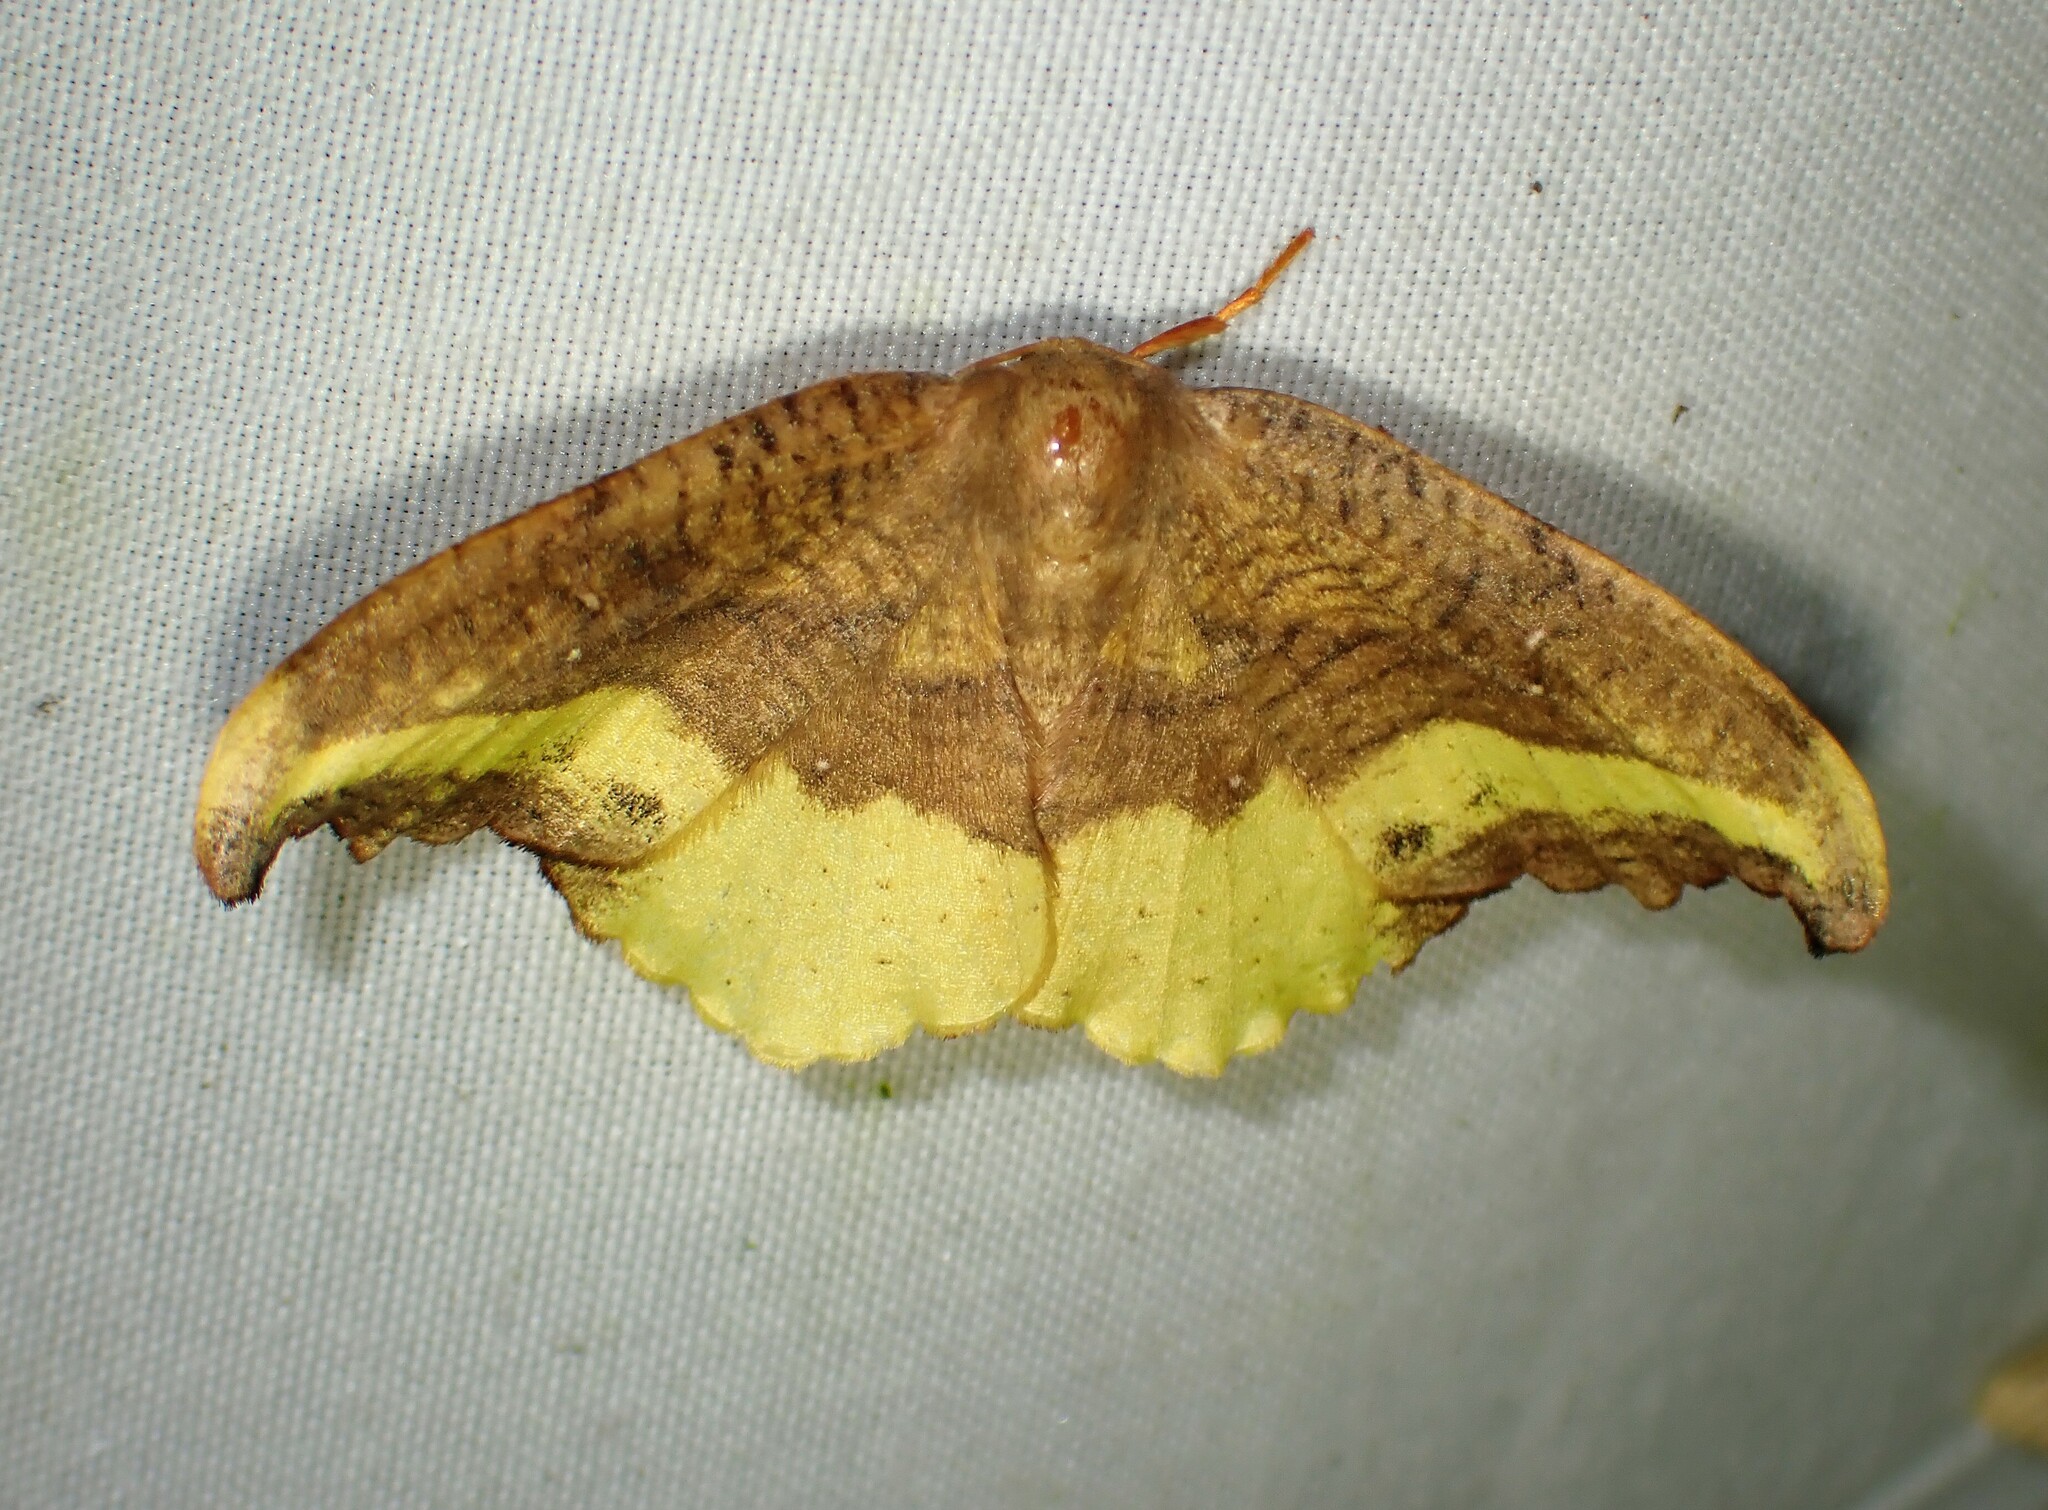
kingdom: Animalia
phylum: Arthropoda
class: Insecta
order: Lepidoptera
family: Drepanidae
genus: Oreta
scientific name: Oreta rosea
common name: Rose hooktip
